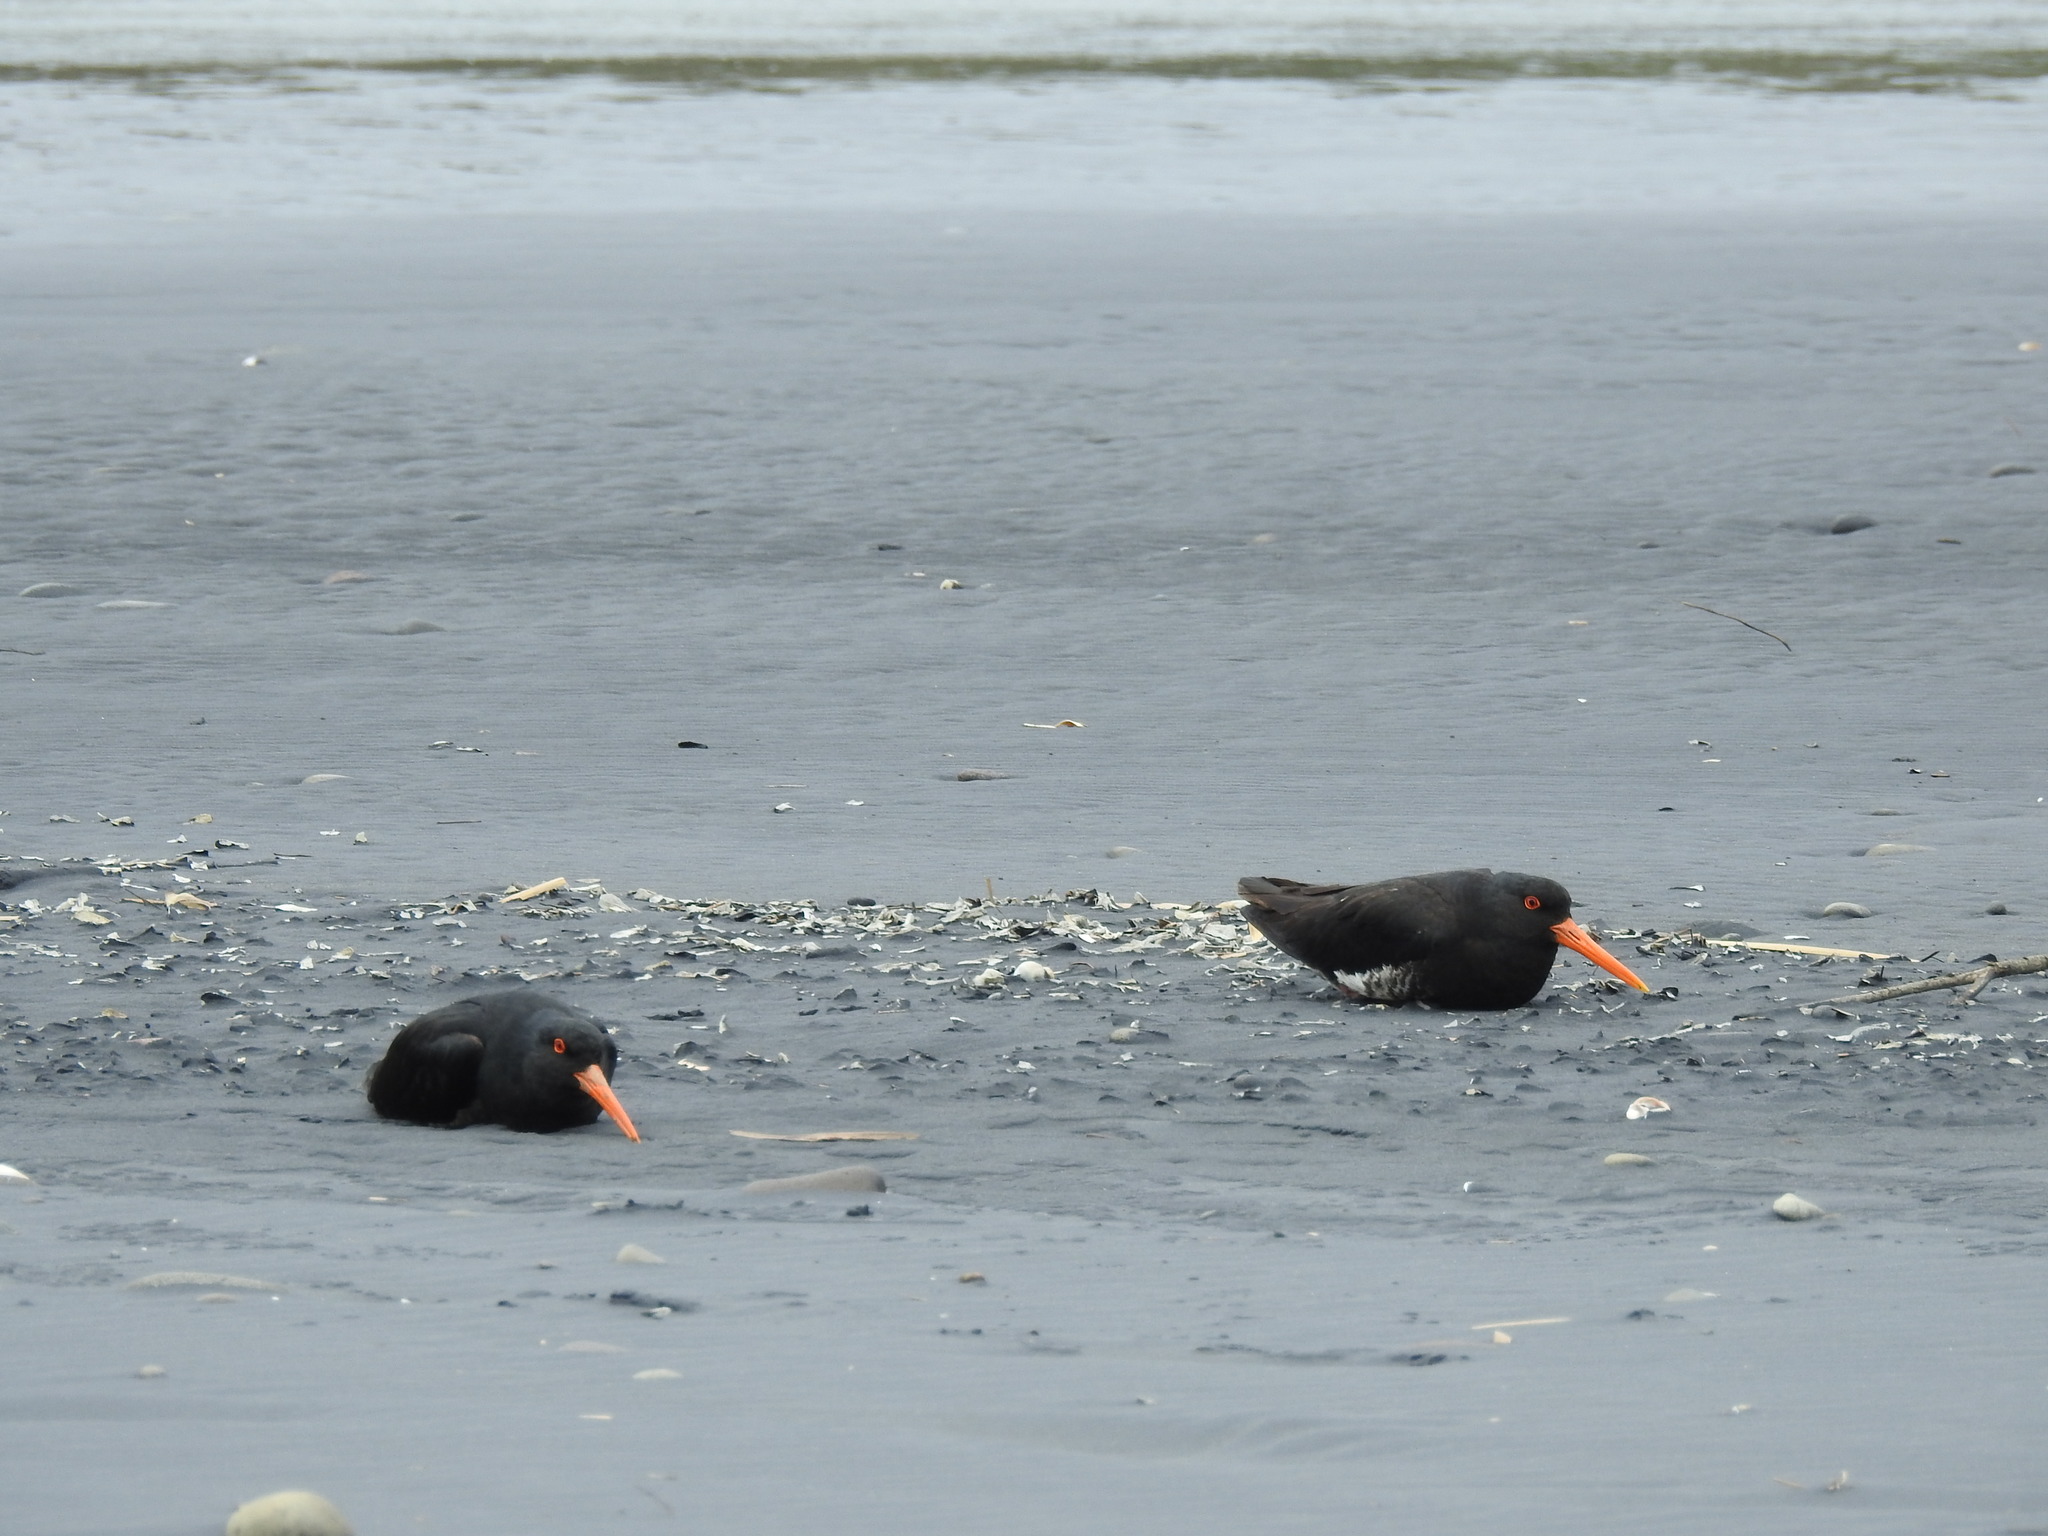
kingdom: Animalia
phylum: Chordata
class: Aves
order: Charadriiformes
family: Haematopodidae
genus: Haematopus
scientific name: Haematopus unicolor
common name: Variable oystercatcher
